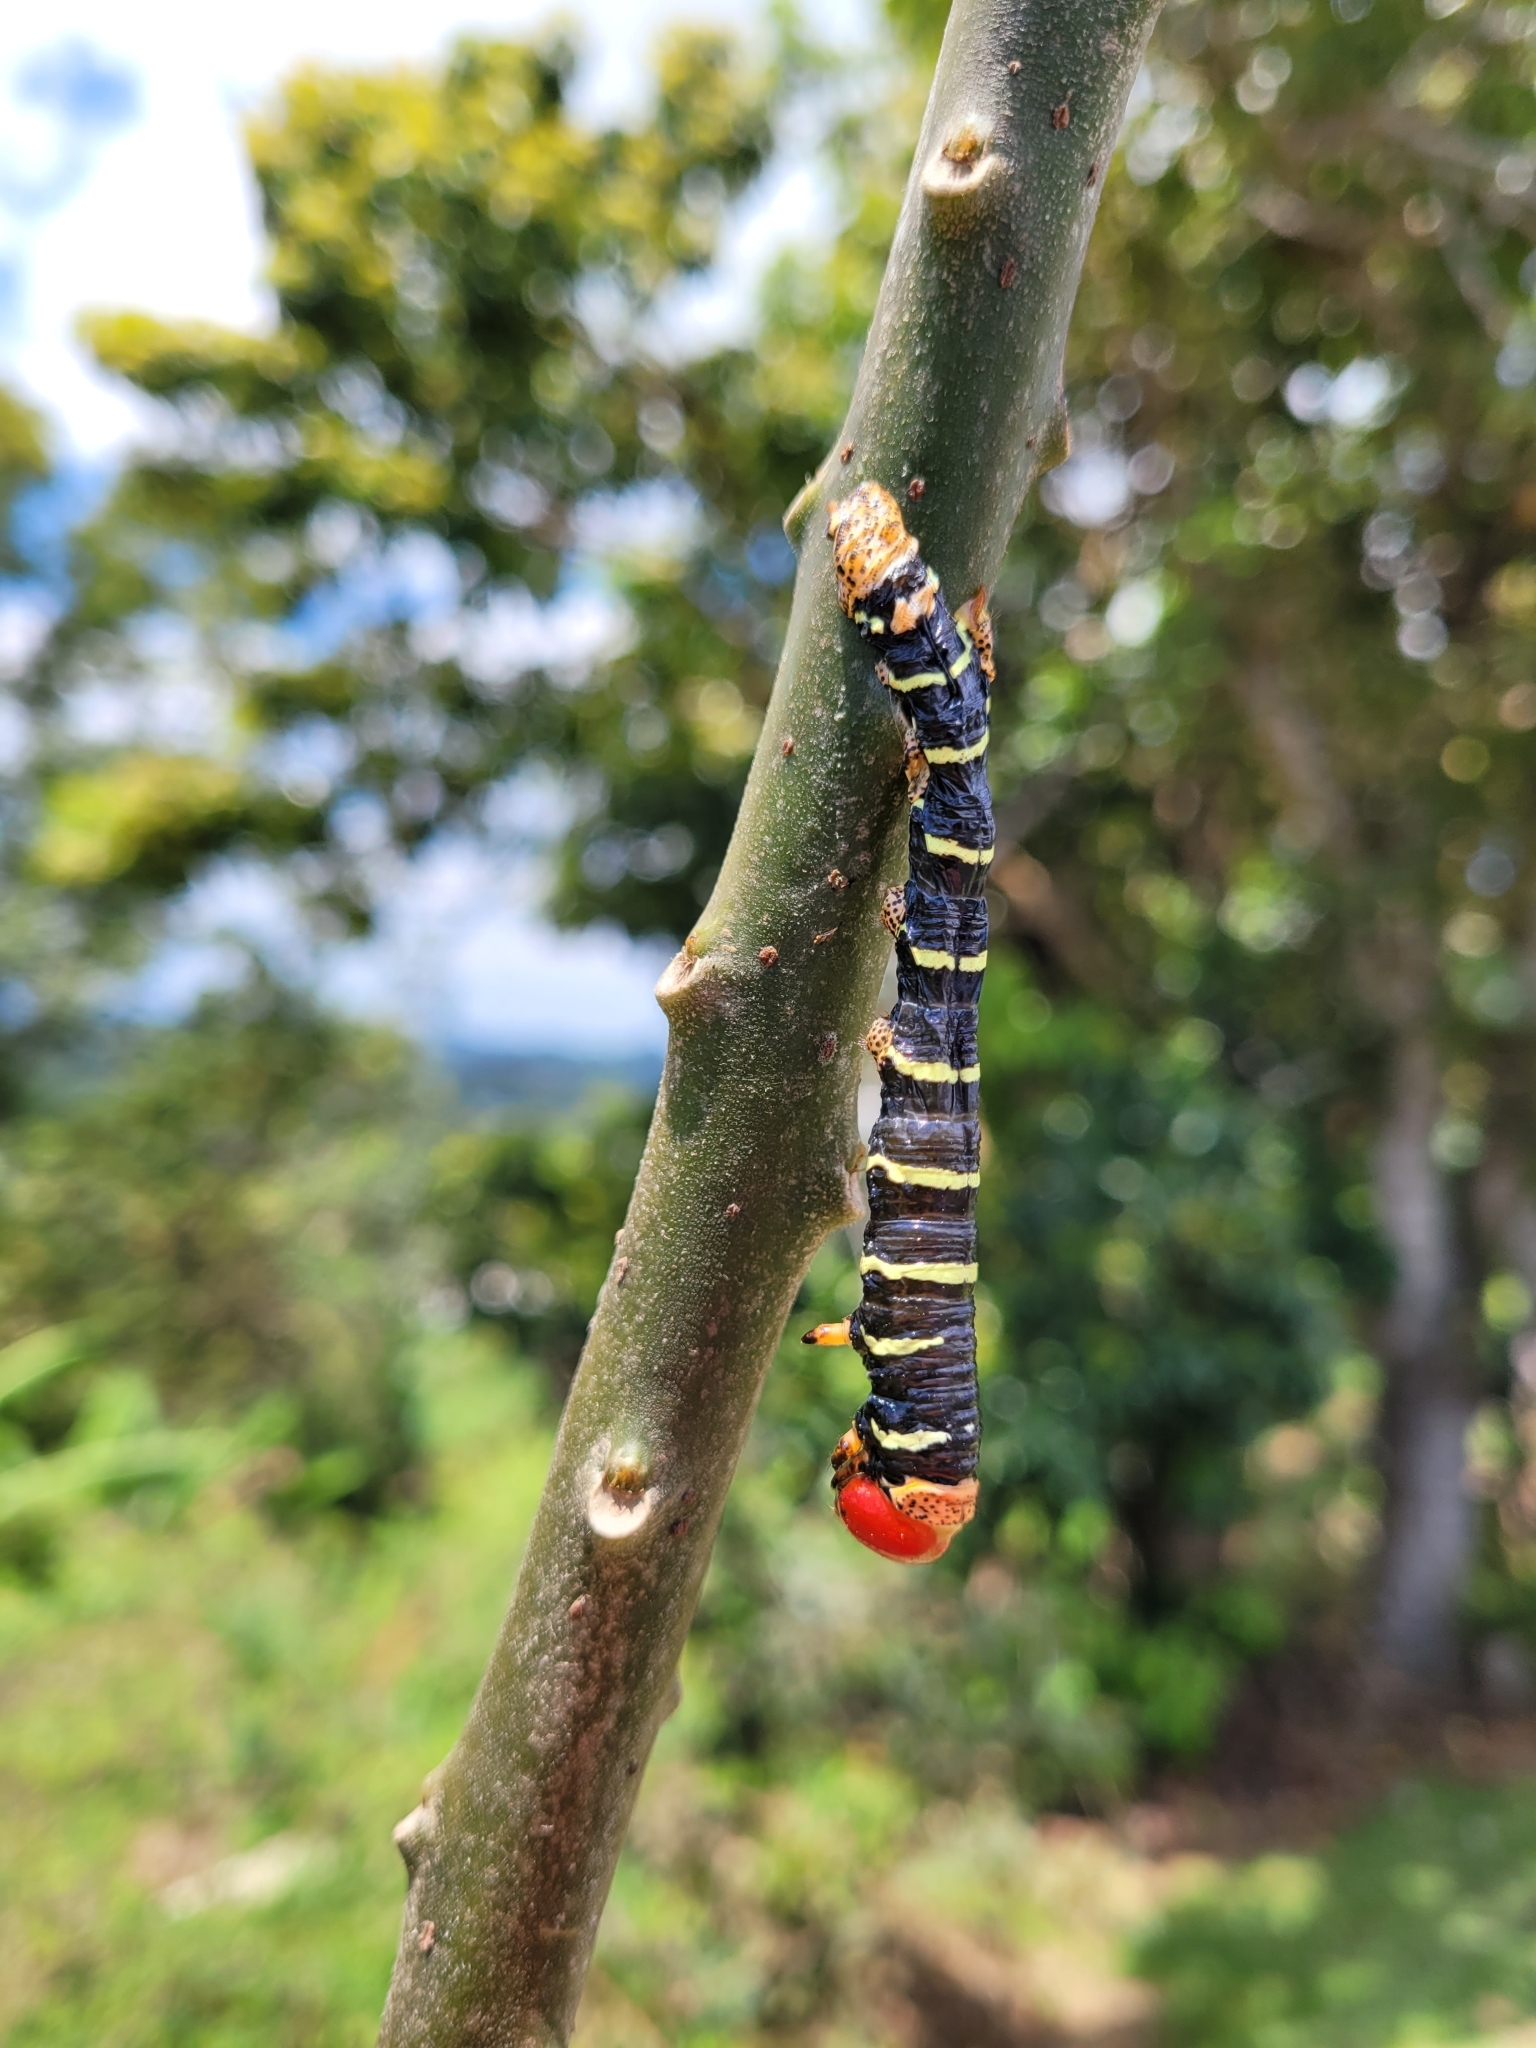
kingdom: Animalia
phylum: Arthropoda
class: Insecta
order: Lepidoptera
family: Sphingidae
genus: Pseudosphinx
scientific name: Pseudosphinx tetrio
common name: Tetrio sphinx
